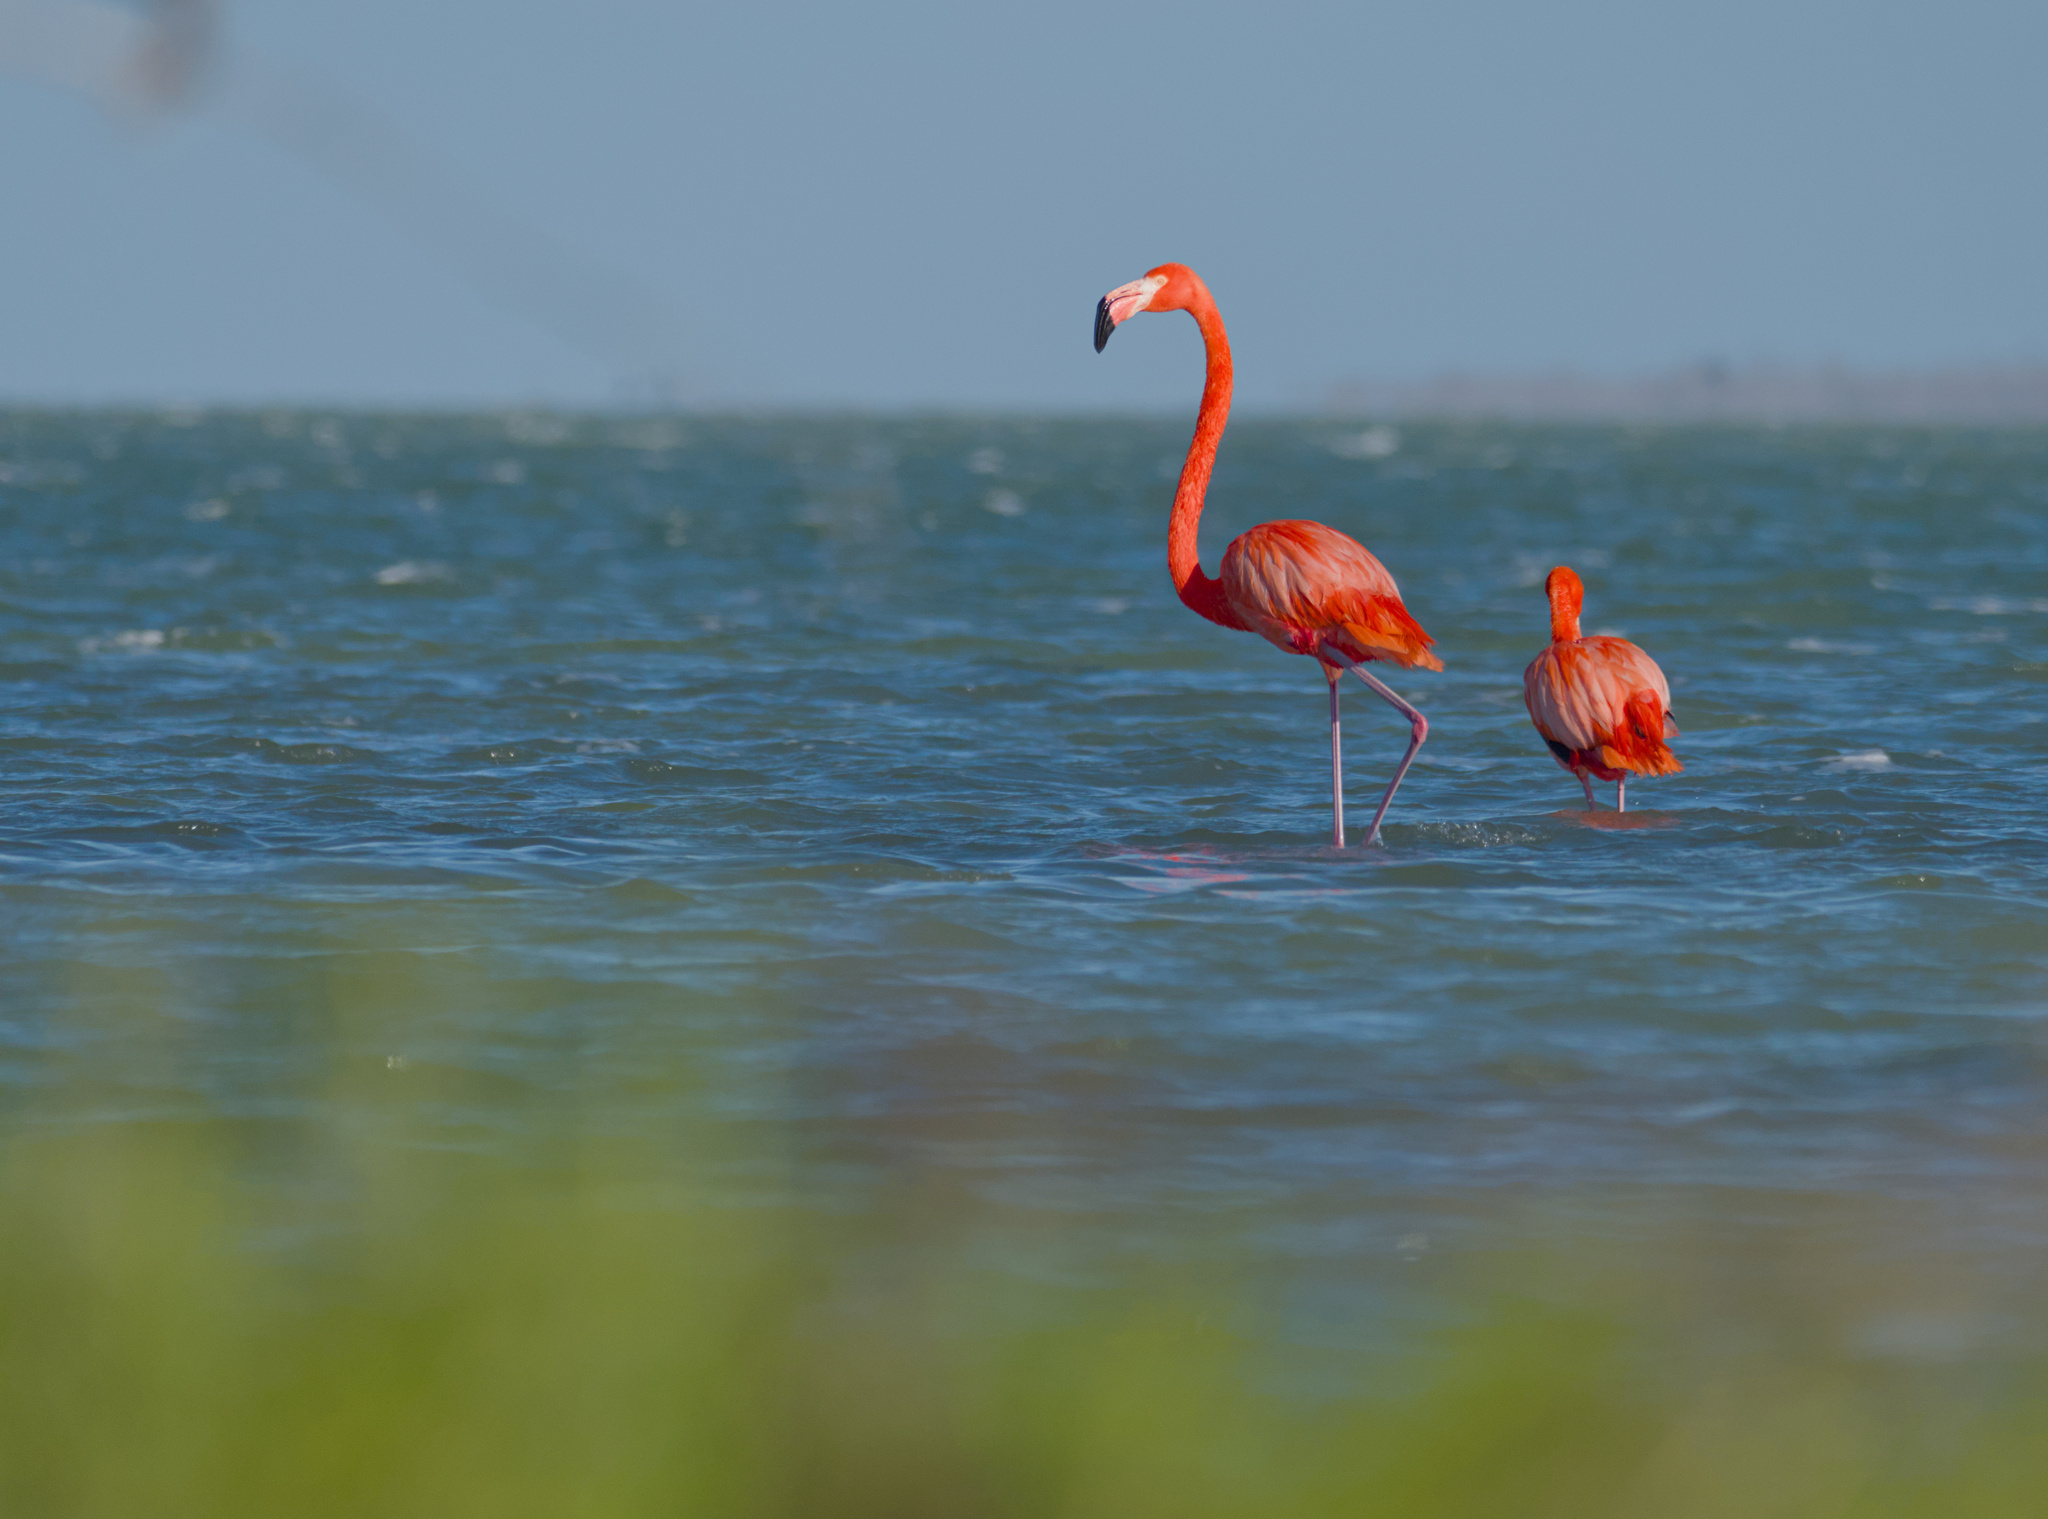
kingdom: Animalia
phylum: Chordata
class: Aves
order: Phoenicopteriformes
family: Phoenicopteridae
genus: Phoenicopterus
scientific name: Phoenicopterus ruber
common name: American flamingo
